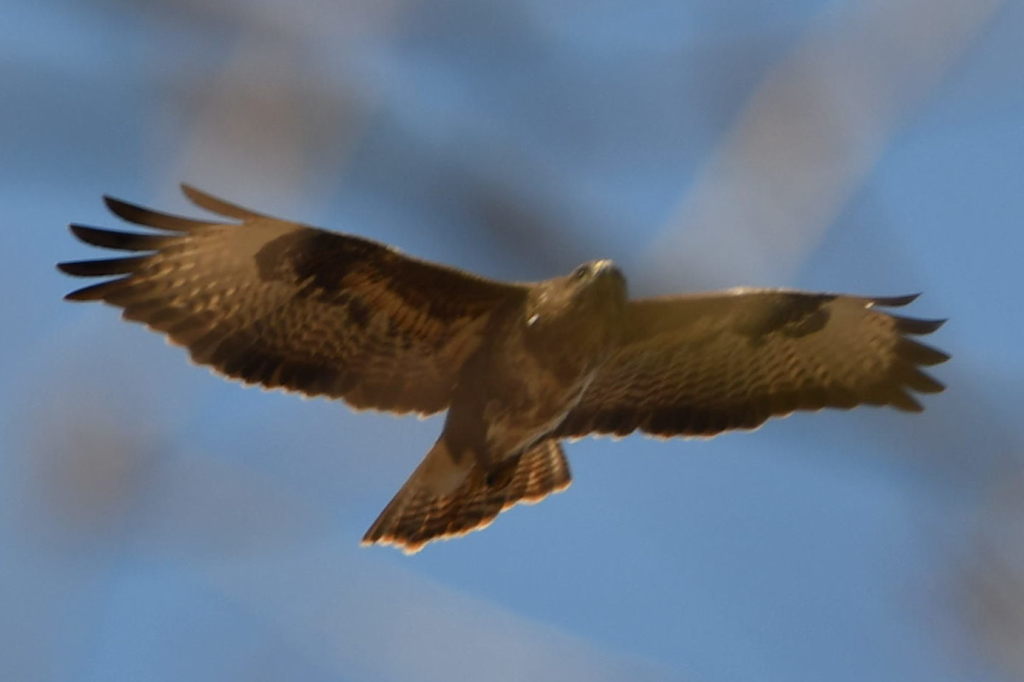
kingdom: Animalia
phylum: Chordata
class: Aves
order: Accipitriformes
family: Accipitridae
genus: Buteo
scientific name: Buteo buteo
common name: Common buzzard
